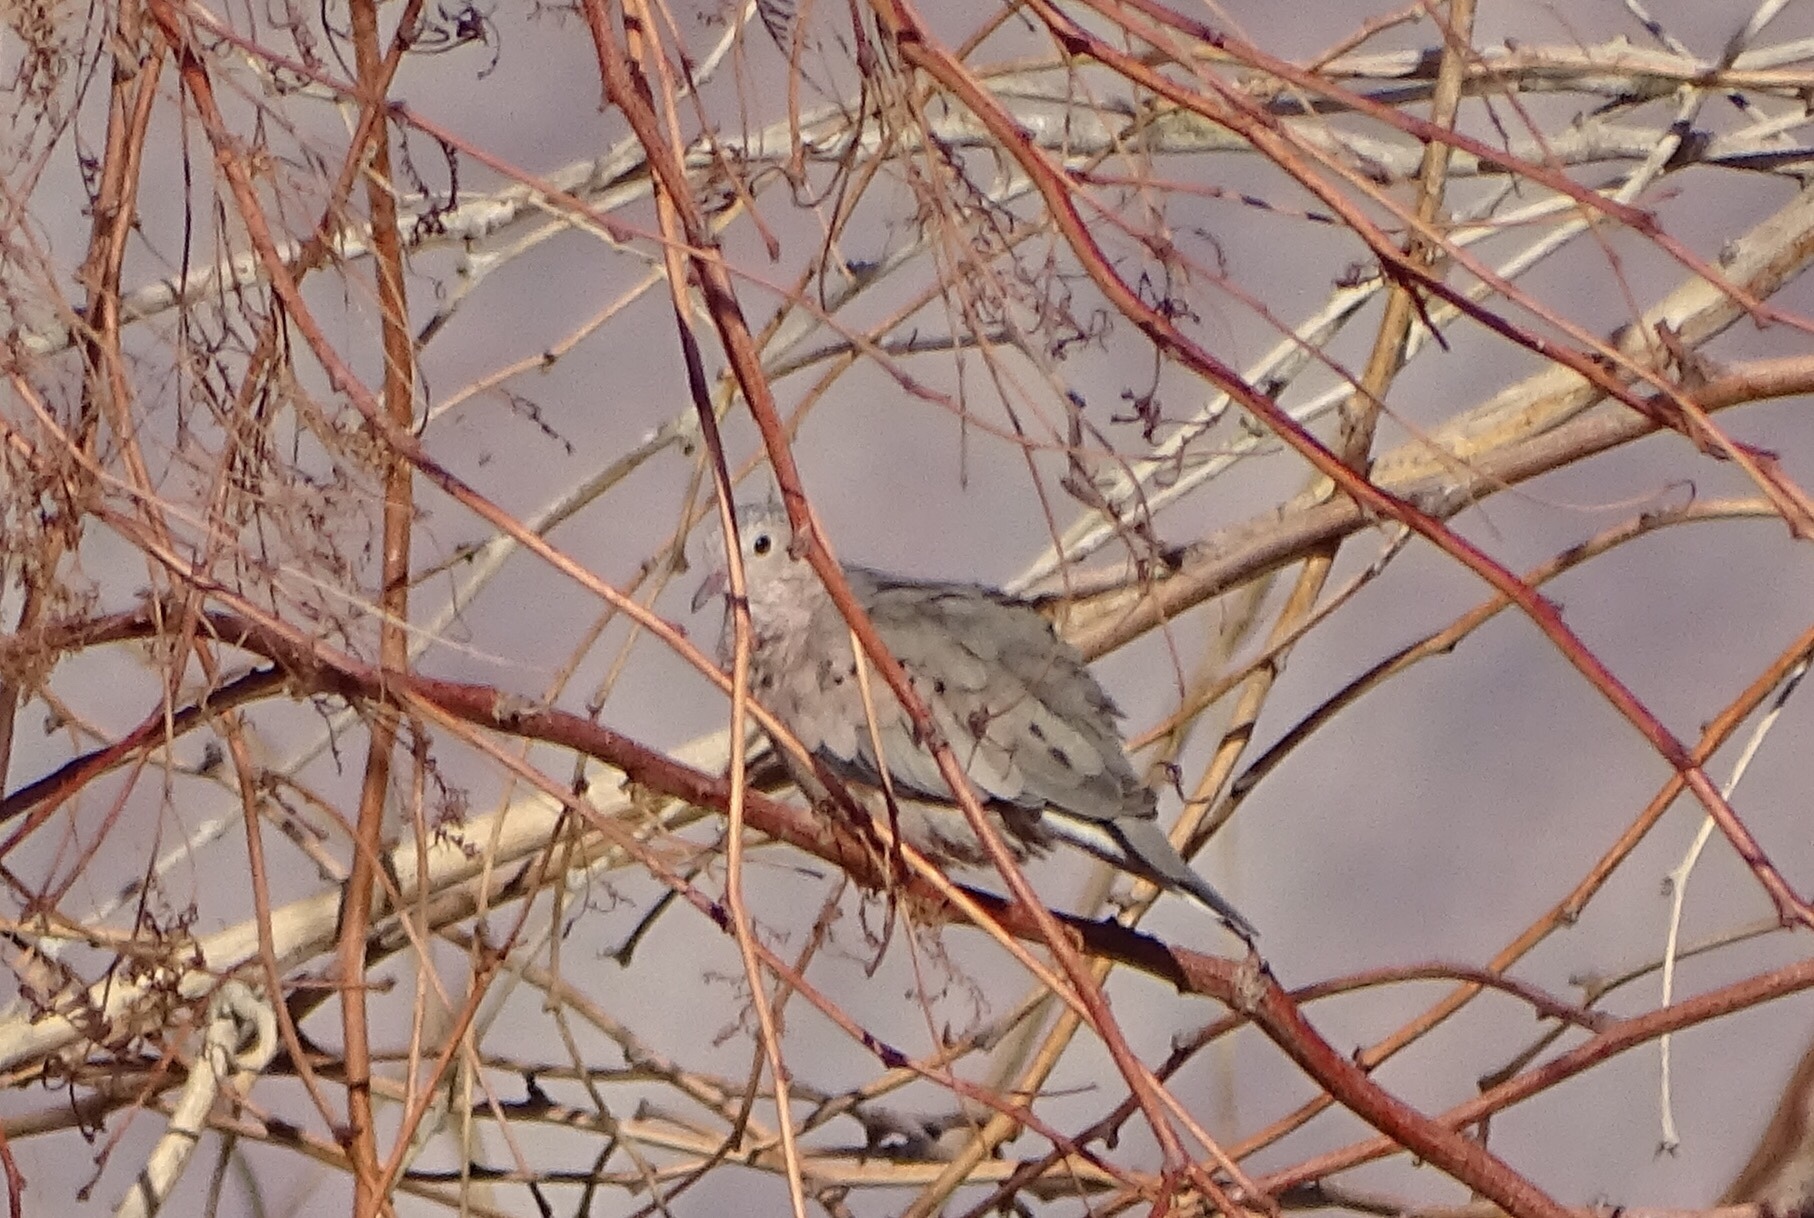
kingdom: Animalia
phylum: Chordata
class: Aves
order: Columbiformes
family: Columbidae
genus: Columbina
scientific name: Columbina passerina
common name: Common ground-dove
